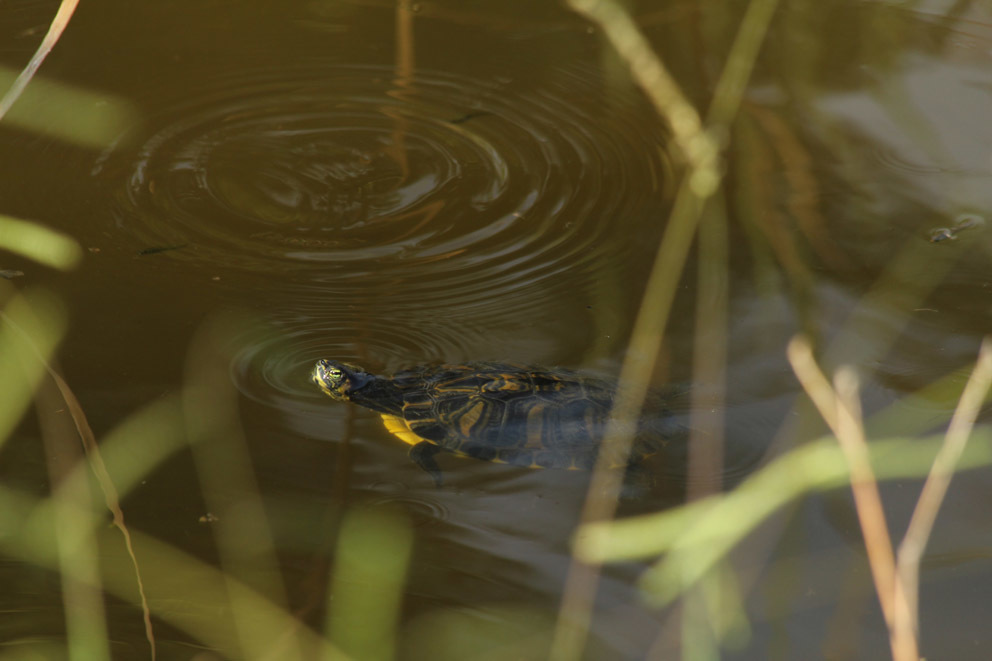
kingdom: Animalia
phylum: Chordata
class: Testudines
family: Emydidae
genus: Trachemys
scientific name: Trachemys scripta
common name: Slider
